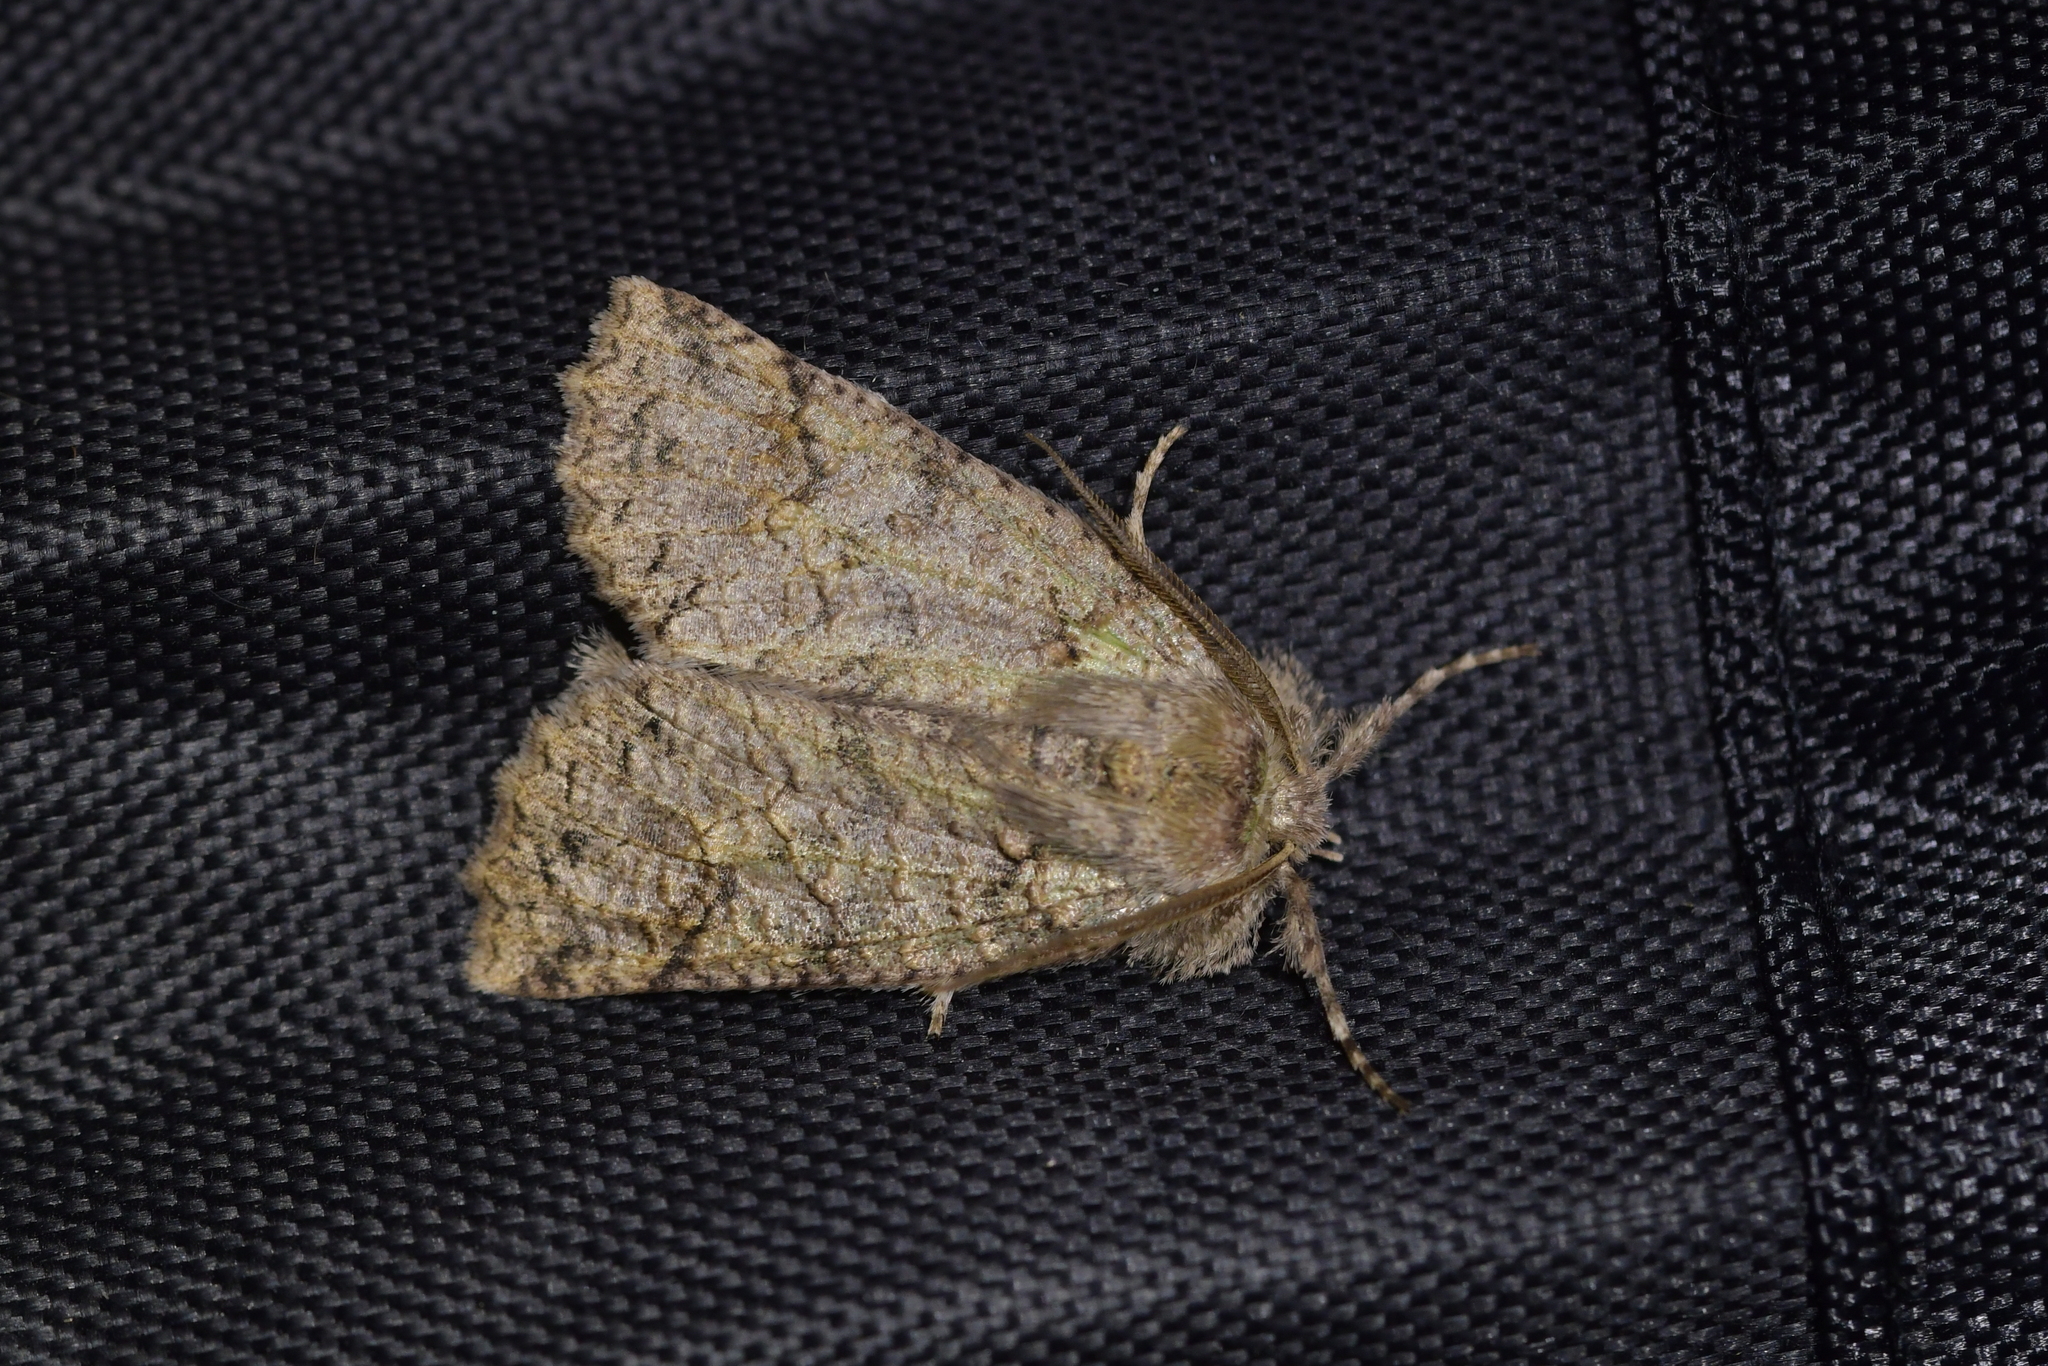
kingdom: Animalia
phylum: Arthropoda
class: Insecta
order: Lepidoptera
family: Geometridae
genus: Declana
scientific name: Declana floccosa
